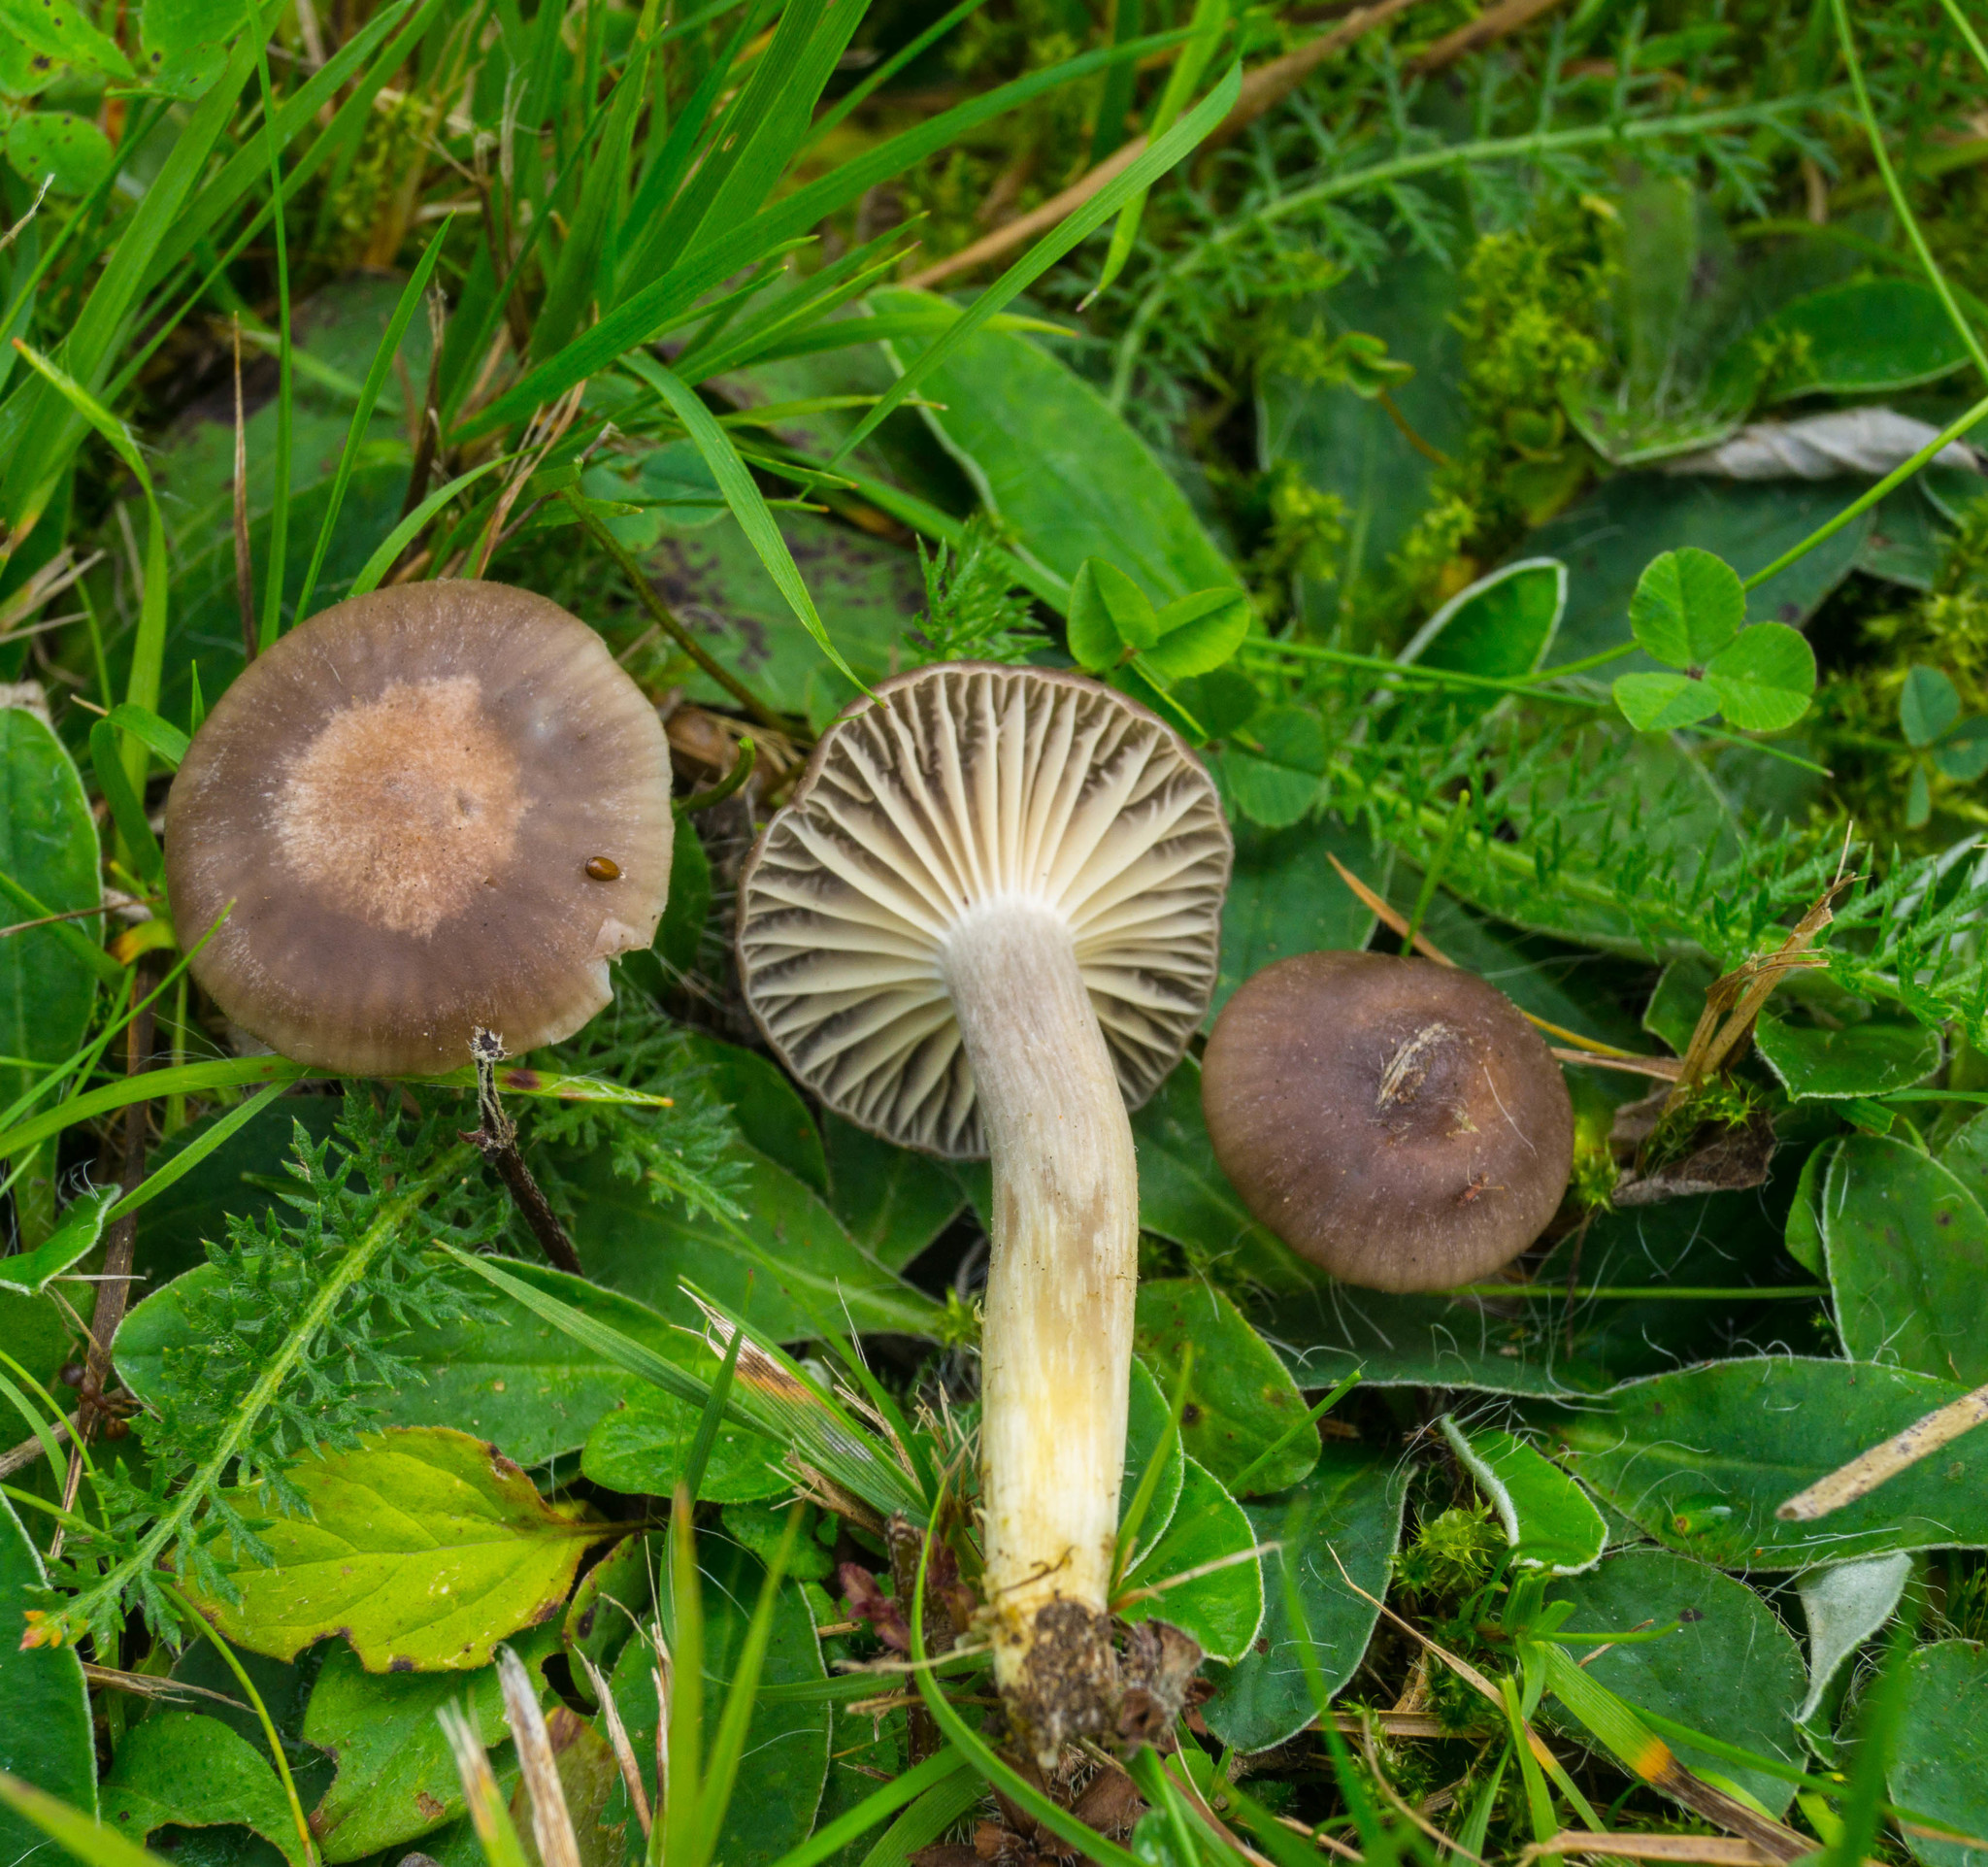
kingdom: Fungi
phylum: Basidiomycota
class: Agaricomycetes
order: Agaricales
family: Hygrophoraceae
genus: Cuphophyllus
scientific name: Cuphophyllus flavipes
